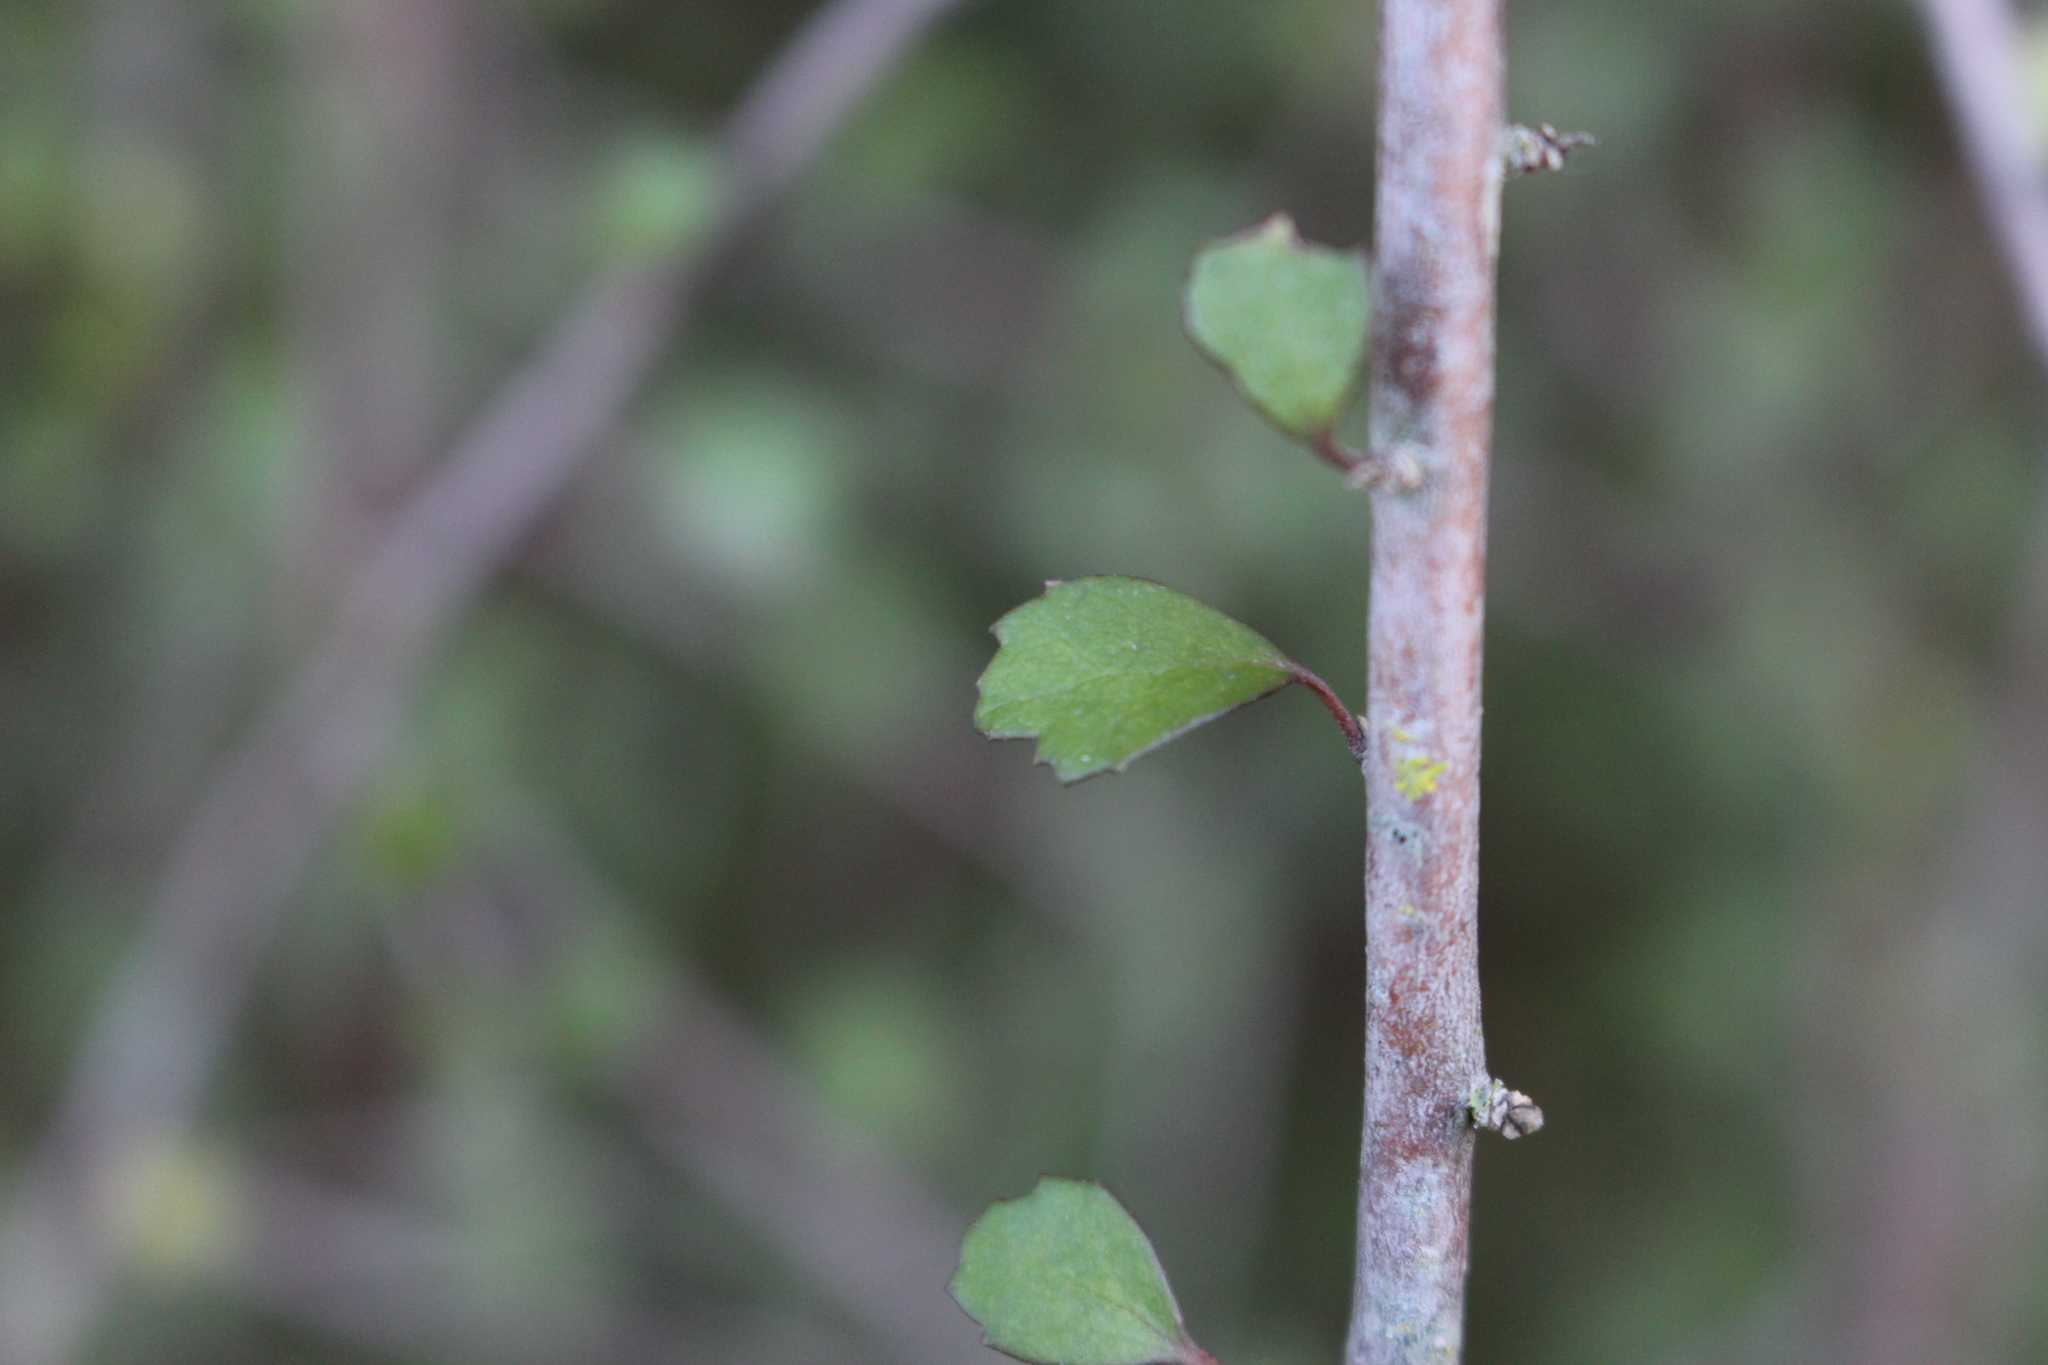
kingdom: Plantae
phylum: Tracheophyta
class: Magnoliopsida
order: Malvales
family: Malvaceae
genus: Hoheria
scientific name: Hoheria angustifolia
